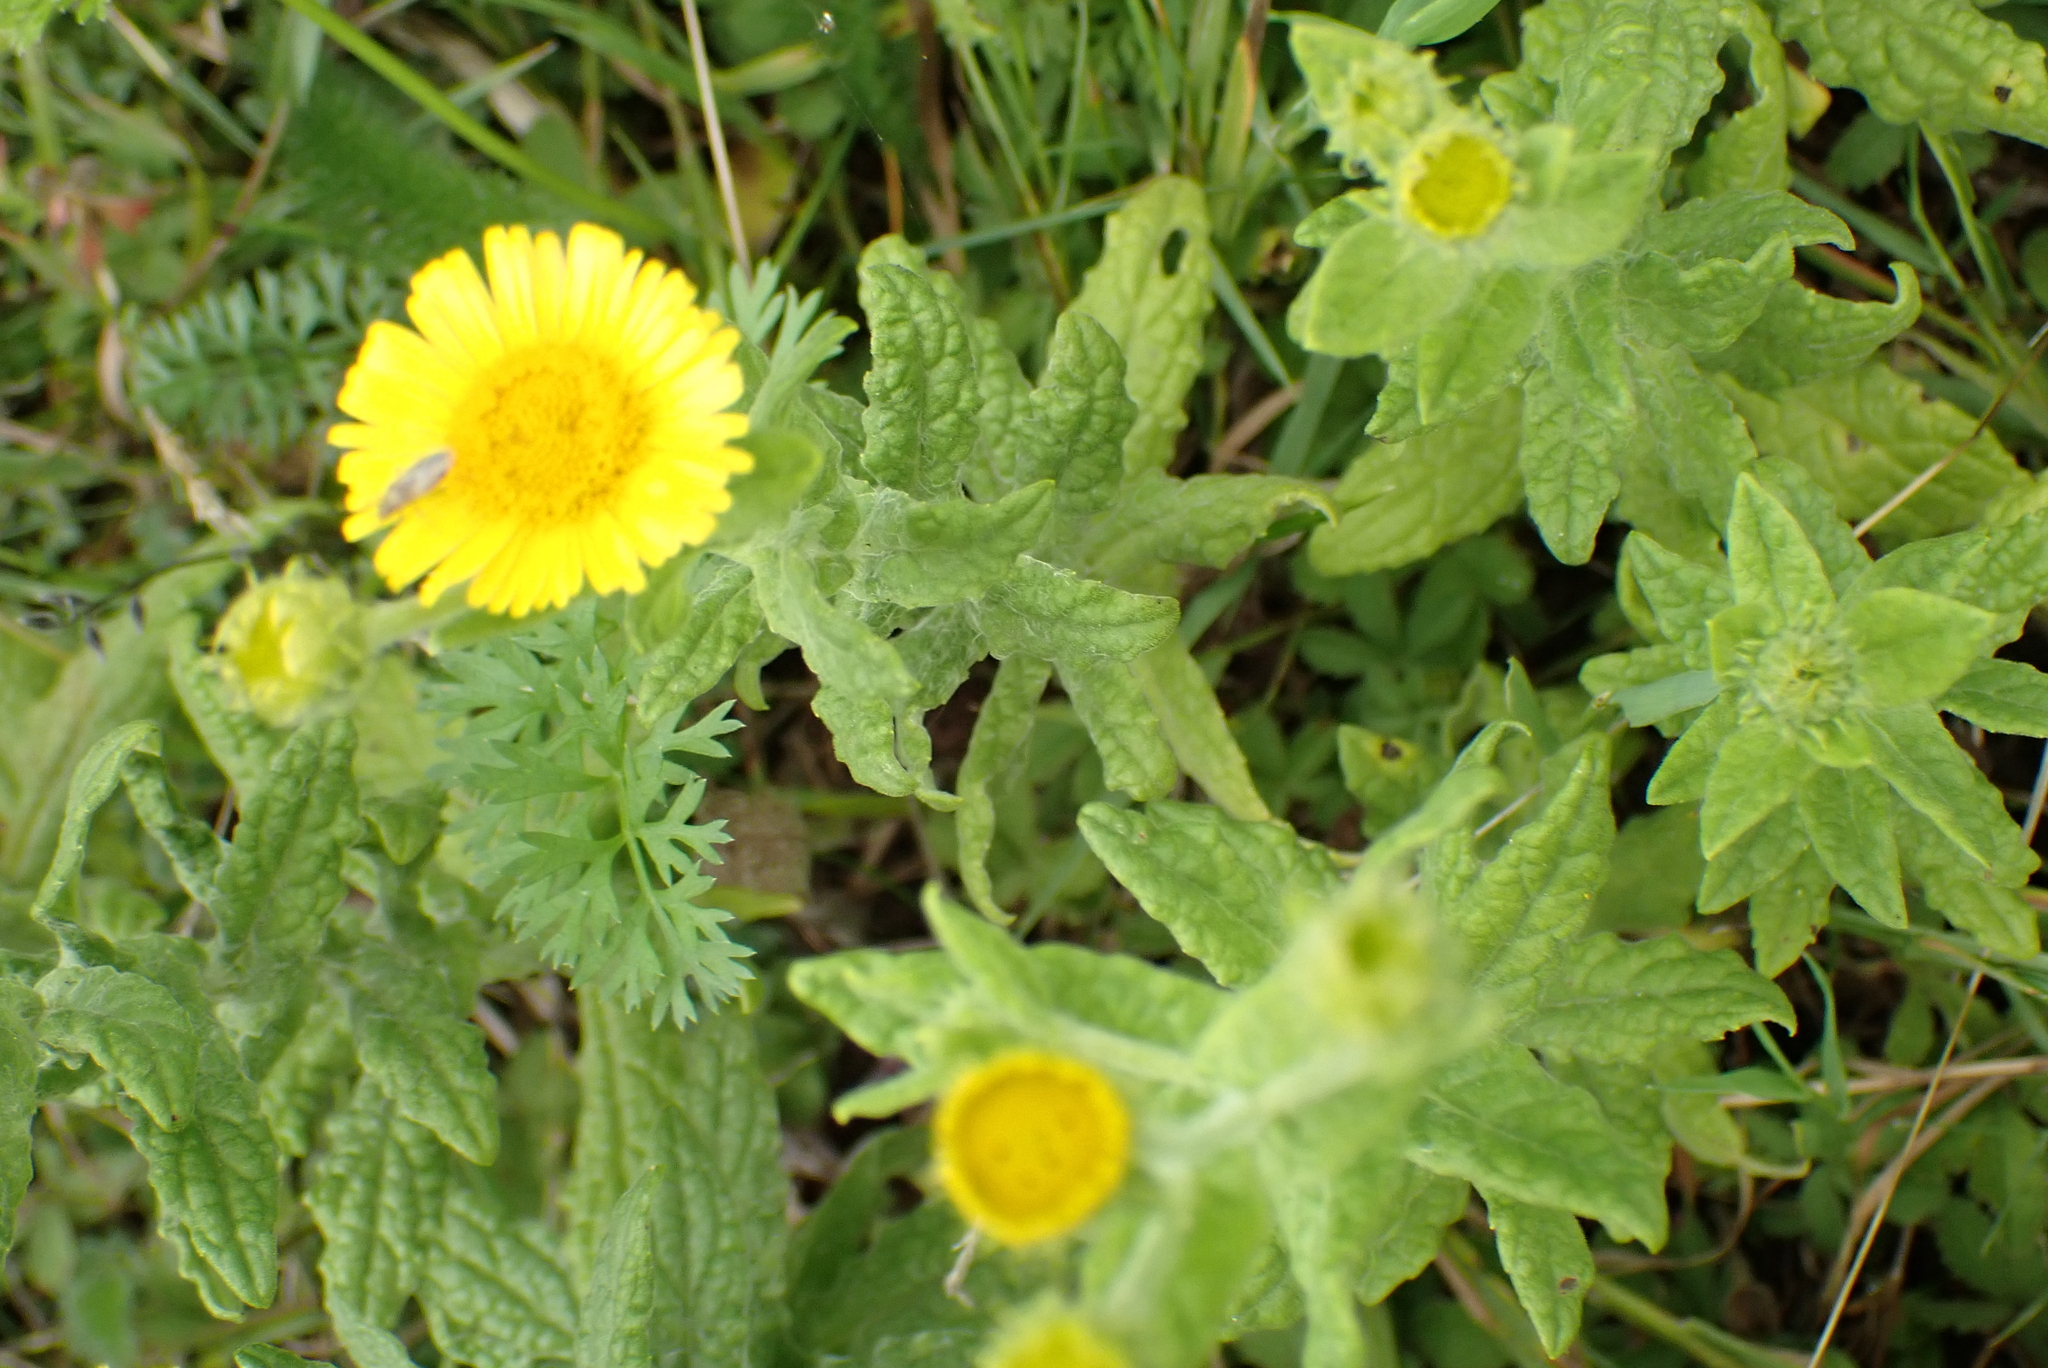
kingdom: Plantae
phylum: Tracheophyta
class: Magnoliopsida
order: Asterales
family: Asteraceae
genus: Pulicaria
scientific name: Pulicaria dysenterica
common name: Common fleabane
